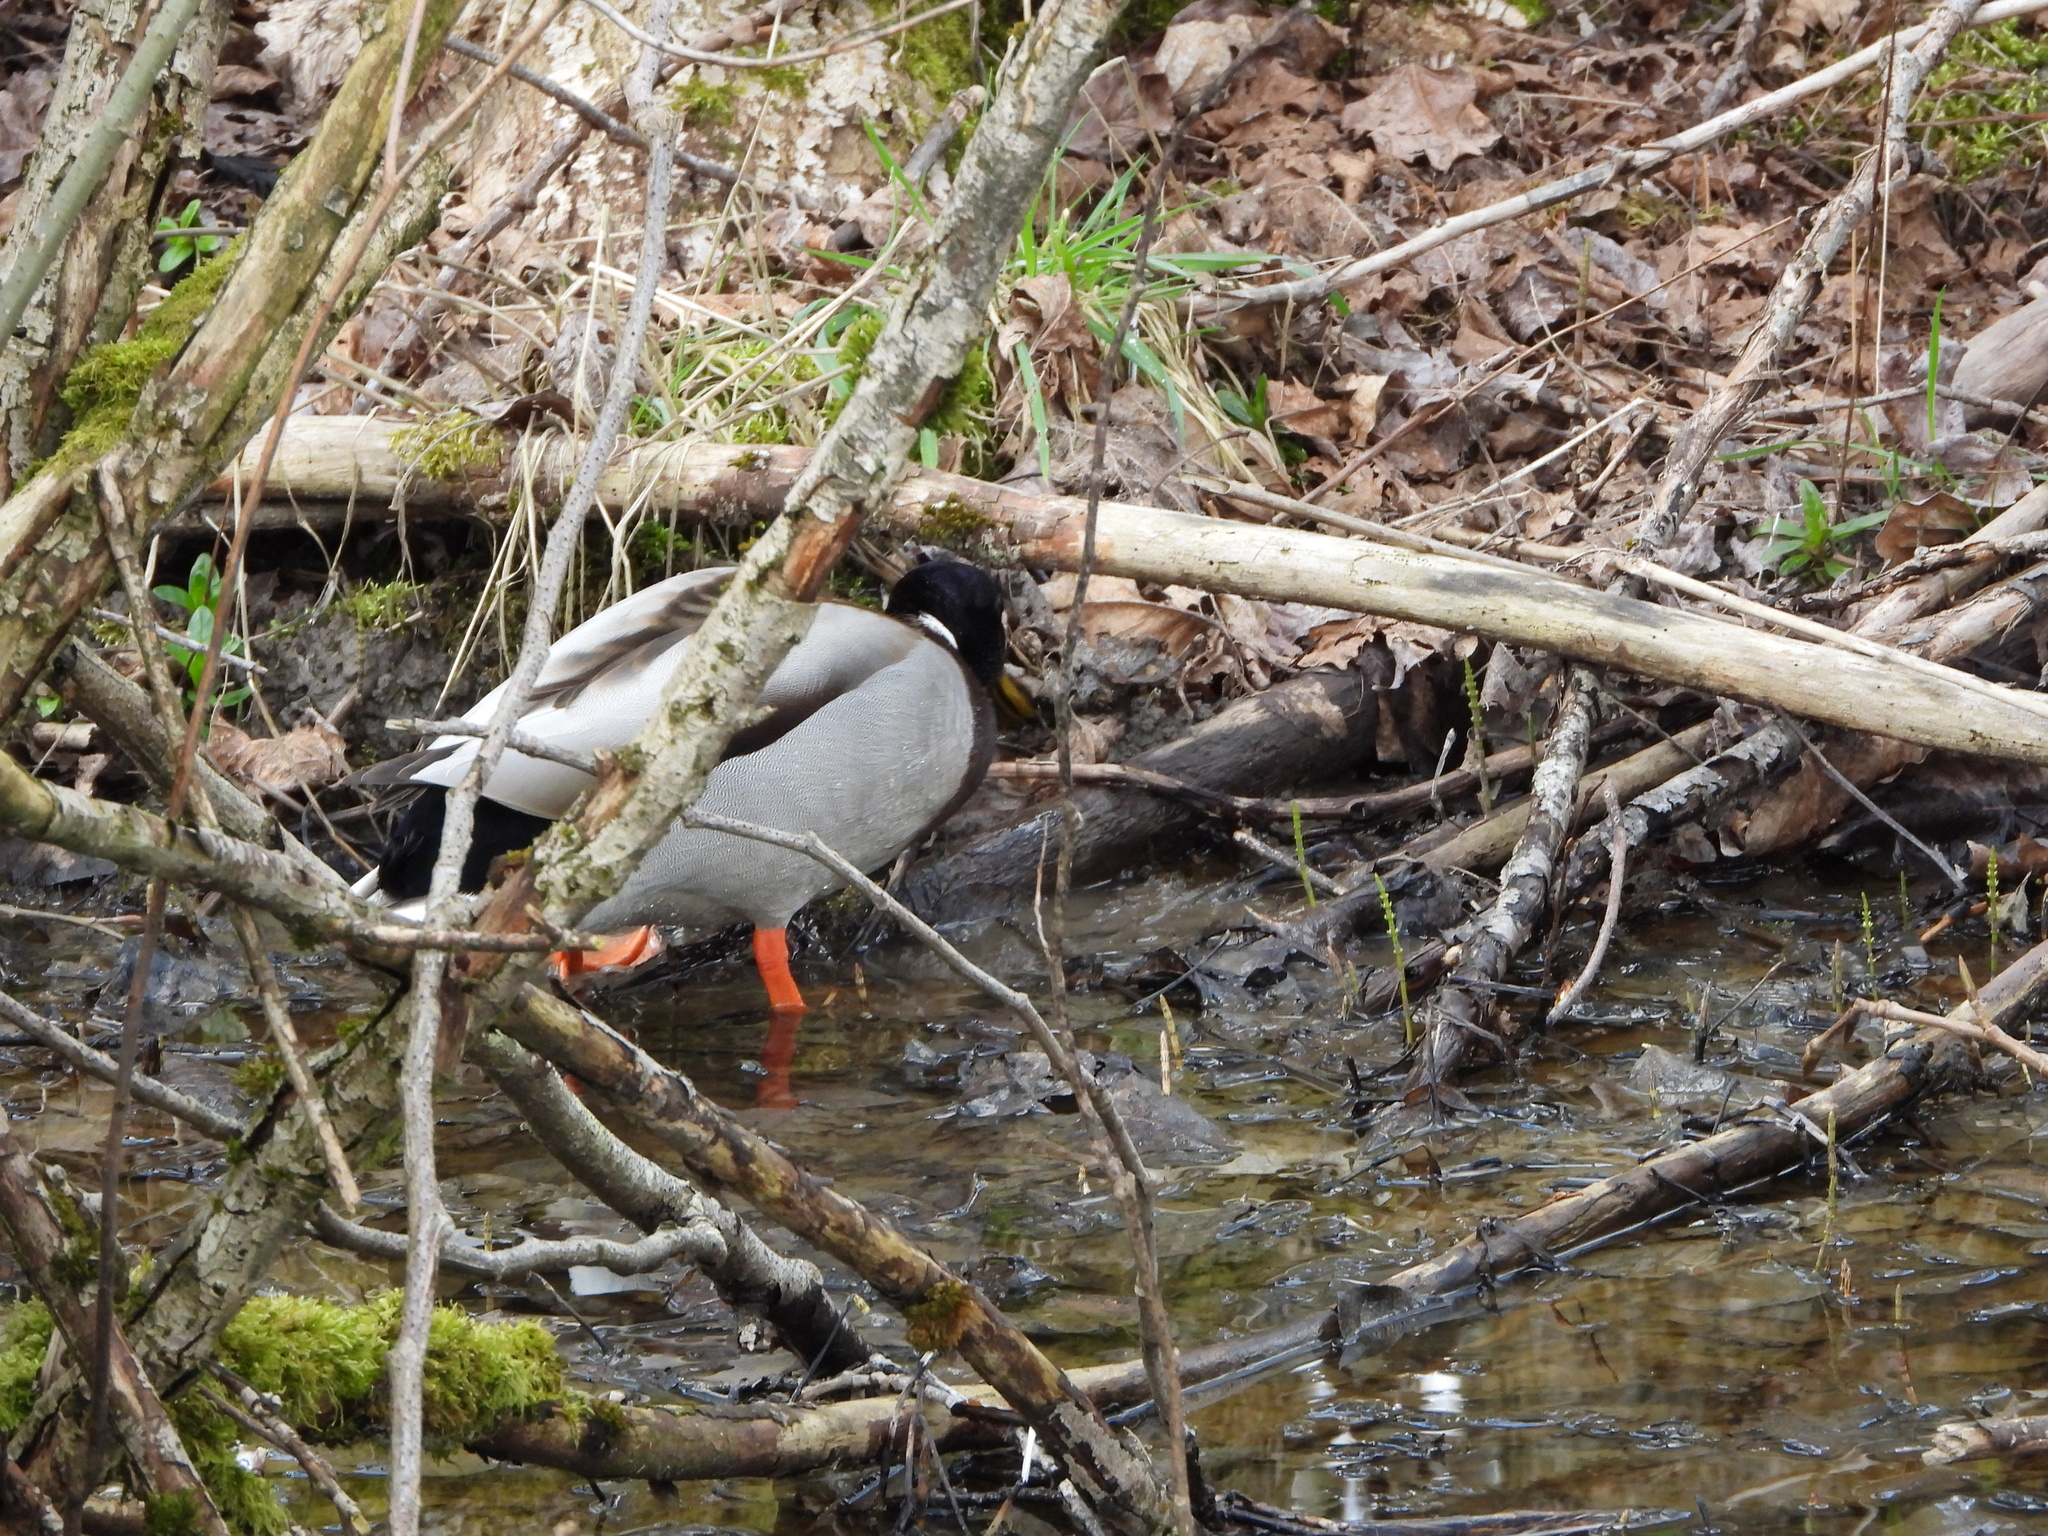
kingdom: Animalia
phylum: Chordata
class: Aves
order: Anseriformes
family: Anatidae
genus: Anas
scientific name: Anas platyrhynchos
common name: Mallard
